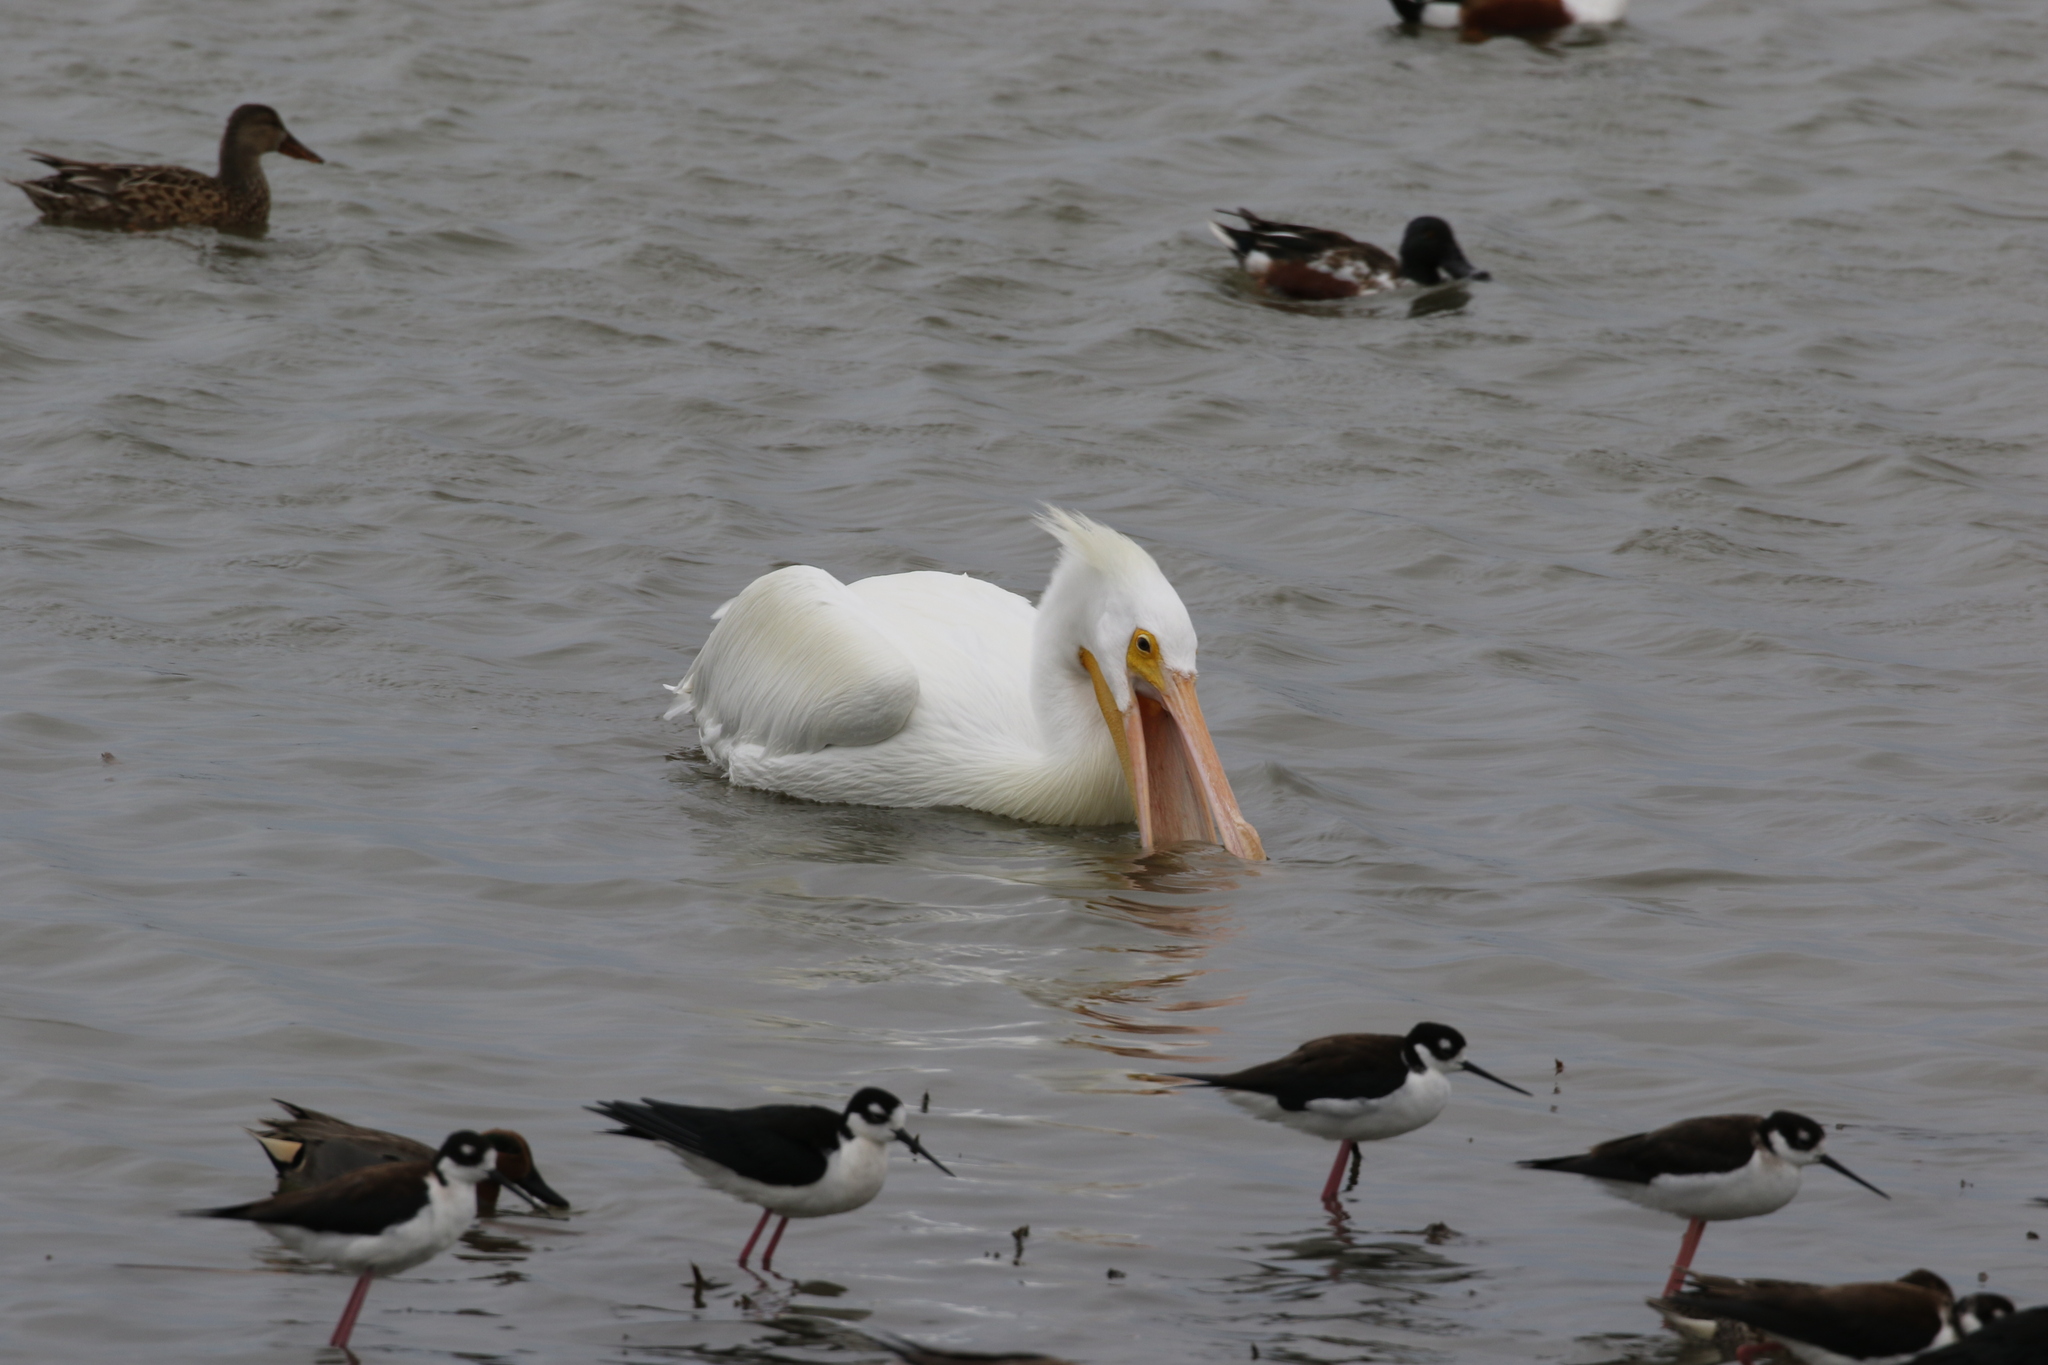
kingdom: Animalia
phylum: Chordata
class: Aves
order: Charadriiformes
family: Recurvirostridae
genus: Himantopus
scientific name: Himantopus mexicanus
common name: Black-necked stilt
